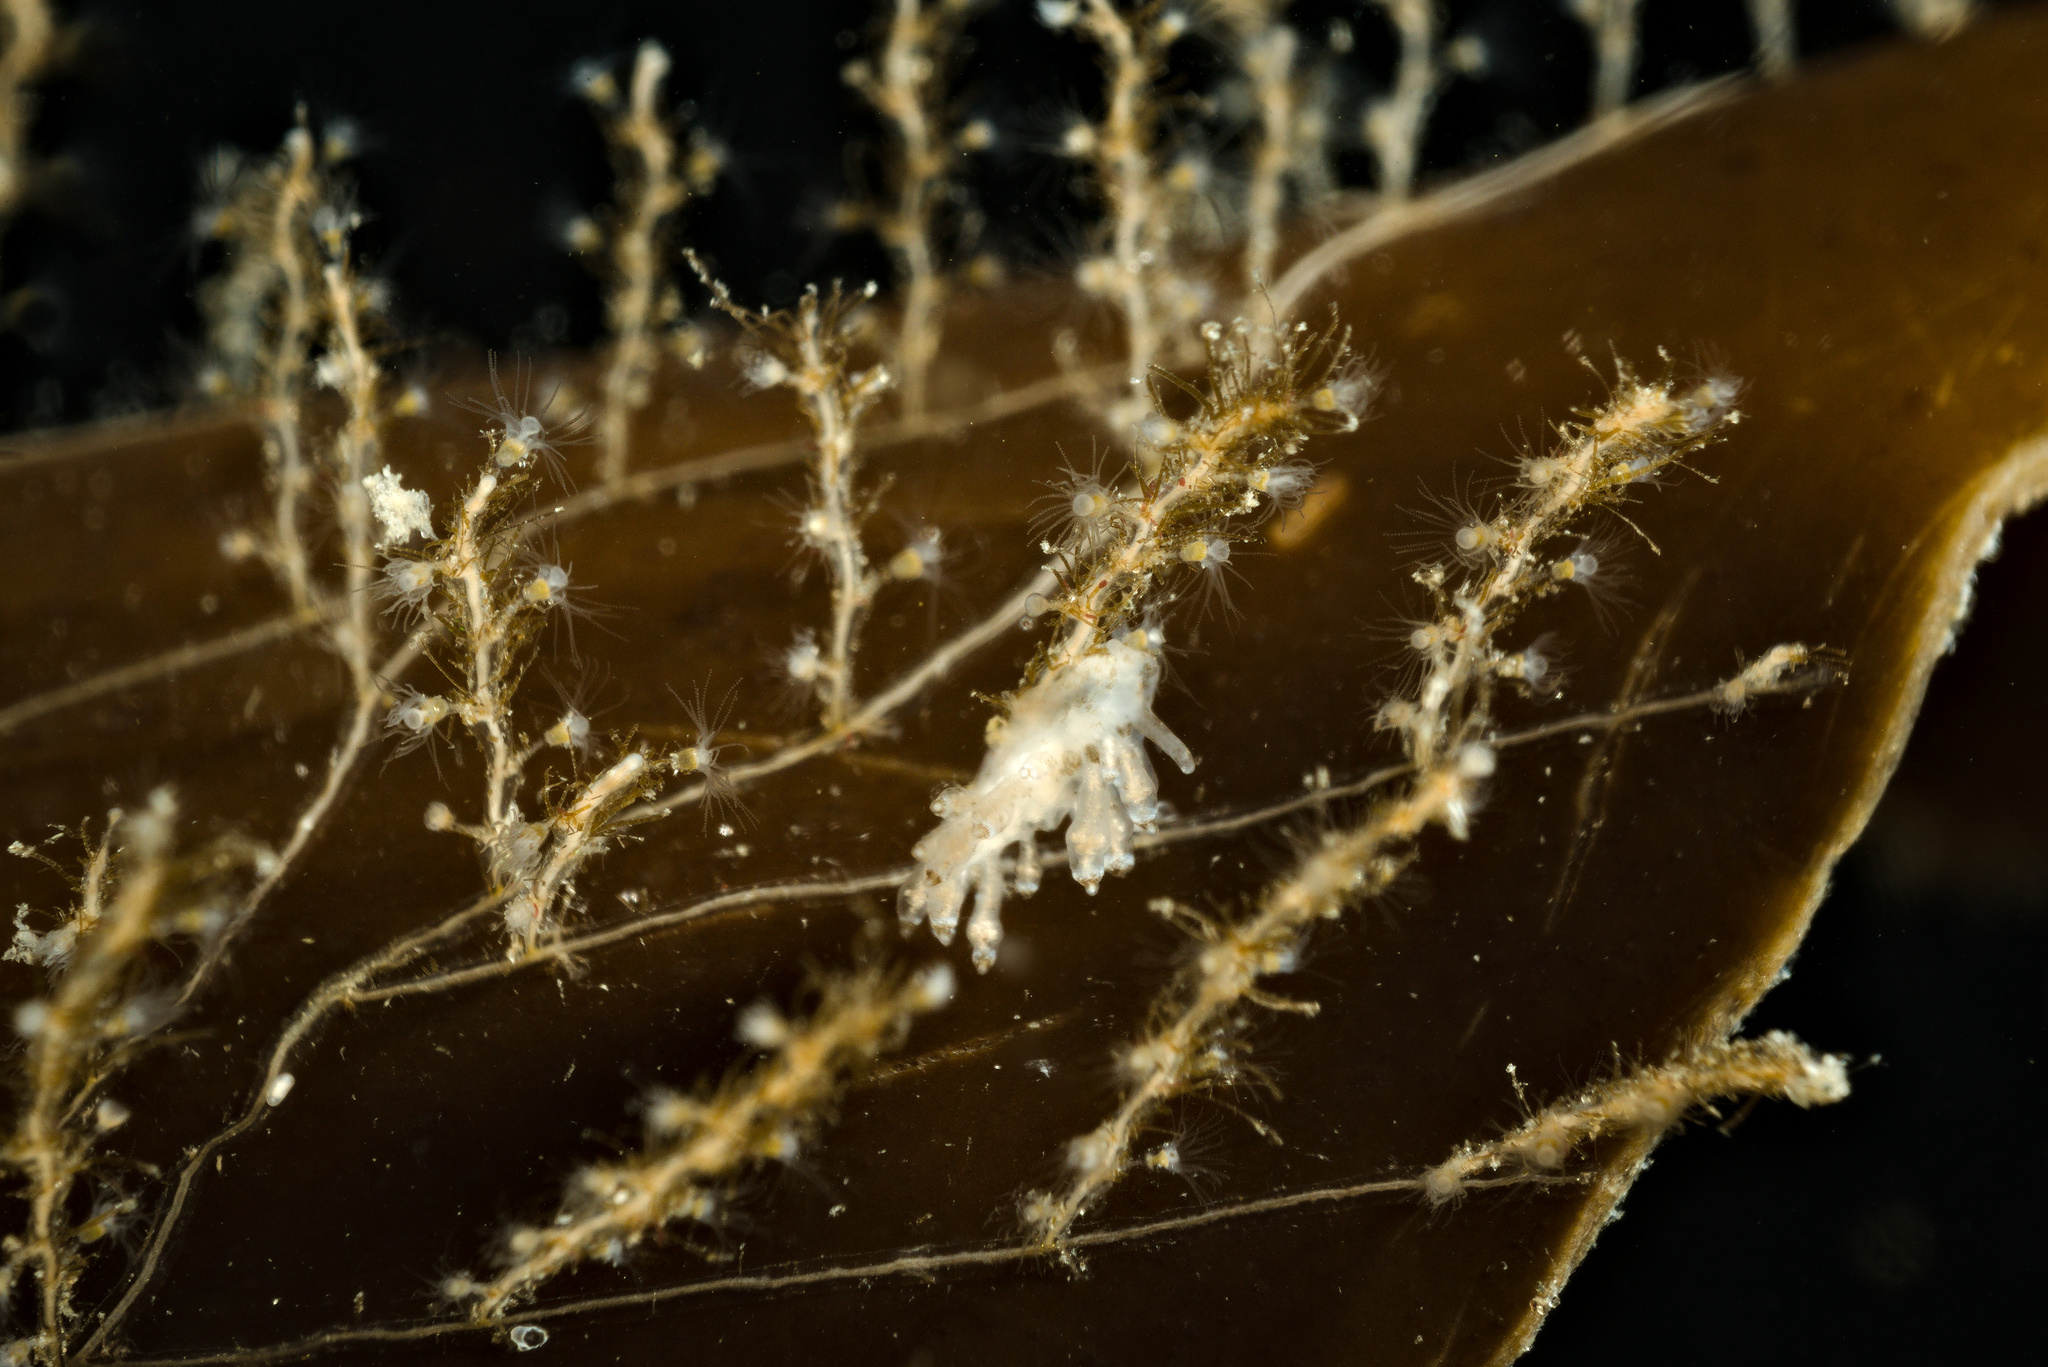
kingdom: Animalia
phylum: Mollusca
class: Gastropoda
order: Nudibranchia
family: Eubranchidae
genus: Eubranchus
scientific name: Eubranchus exiguus
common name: Balloon aeolis
